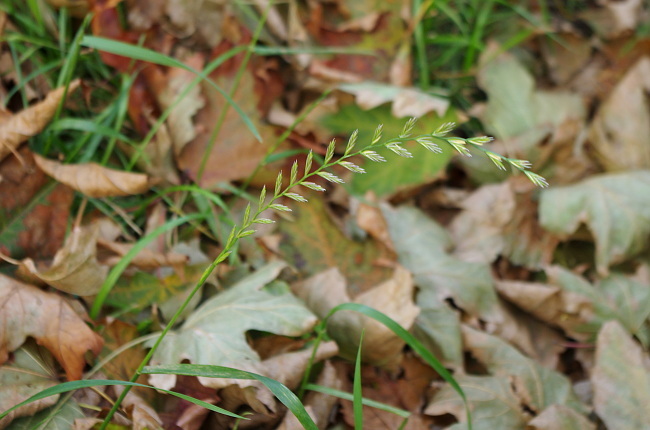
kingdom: Plantae
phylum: Tracheophyta
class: Liliopsida
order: Poales
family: Poaceae
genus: Lolium
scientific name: Lolium perenne
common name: Perennial ryegrass
